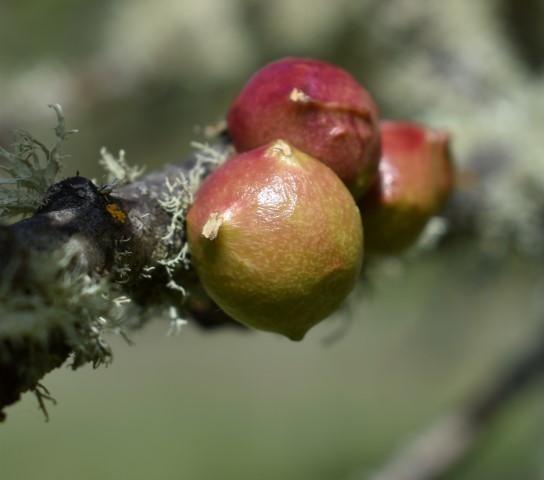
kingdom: Animalia
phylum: Arthropoda
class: Insecta
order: Hymenoptera
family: Cynipidae
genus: Andricus
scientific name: Andricus quercuscalifornicus
